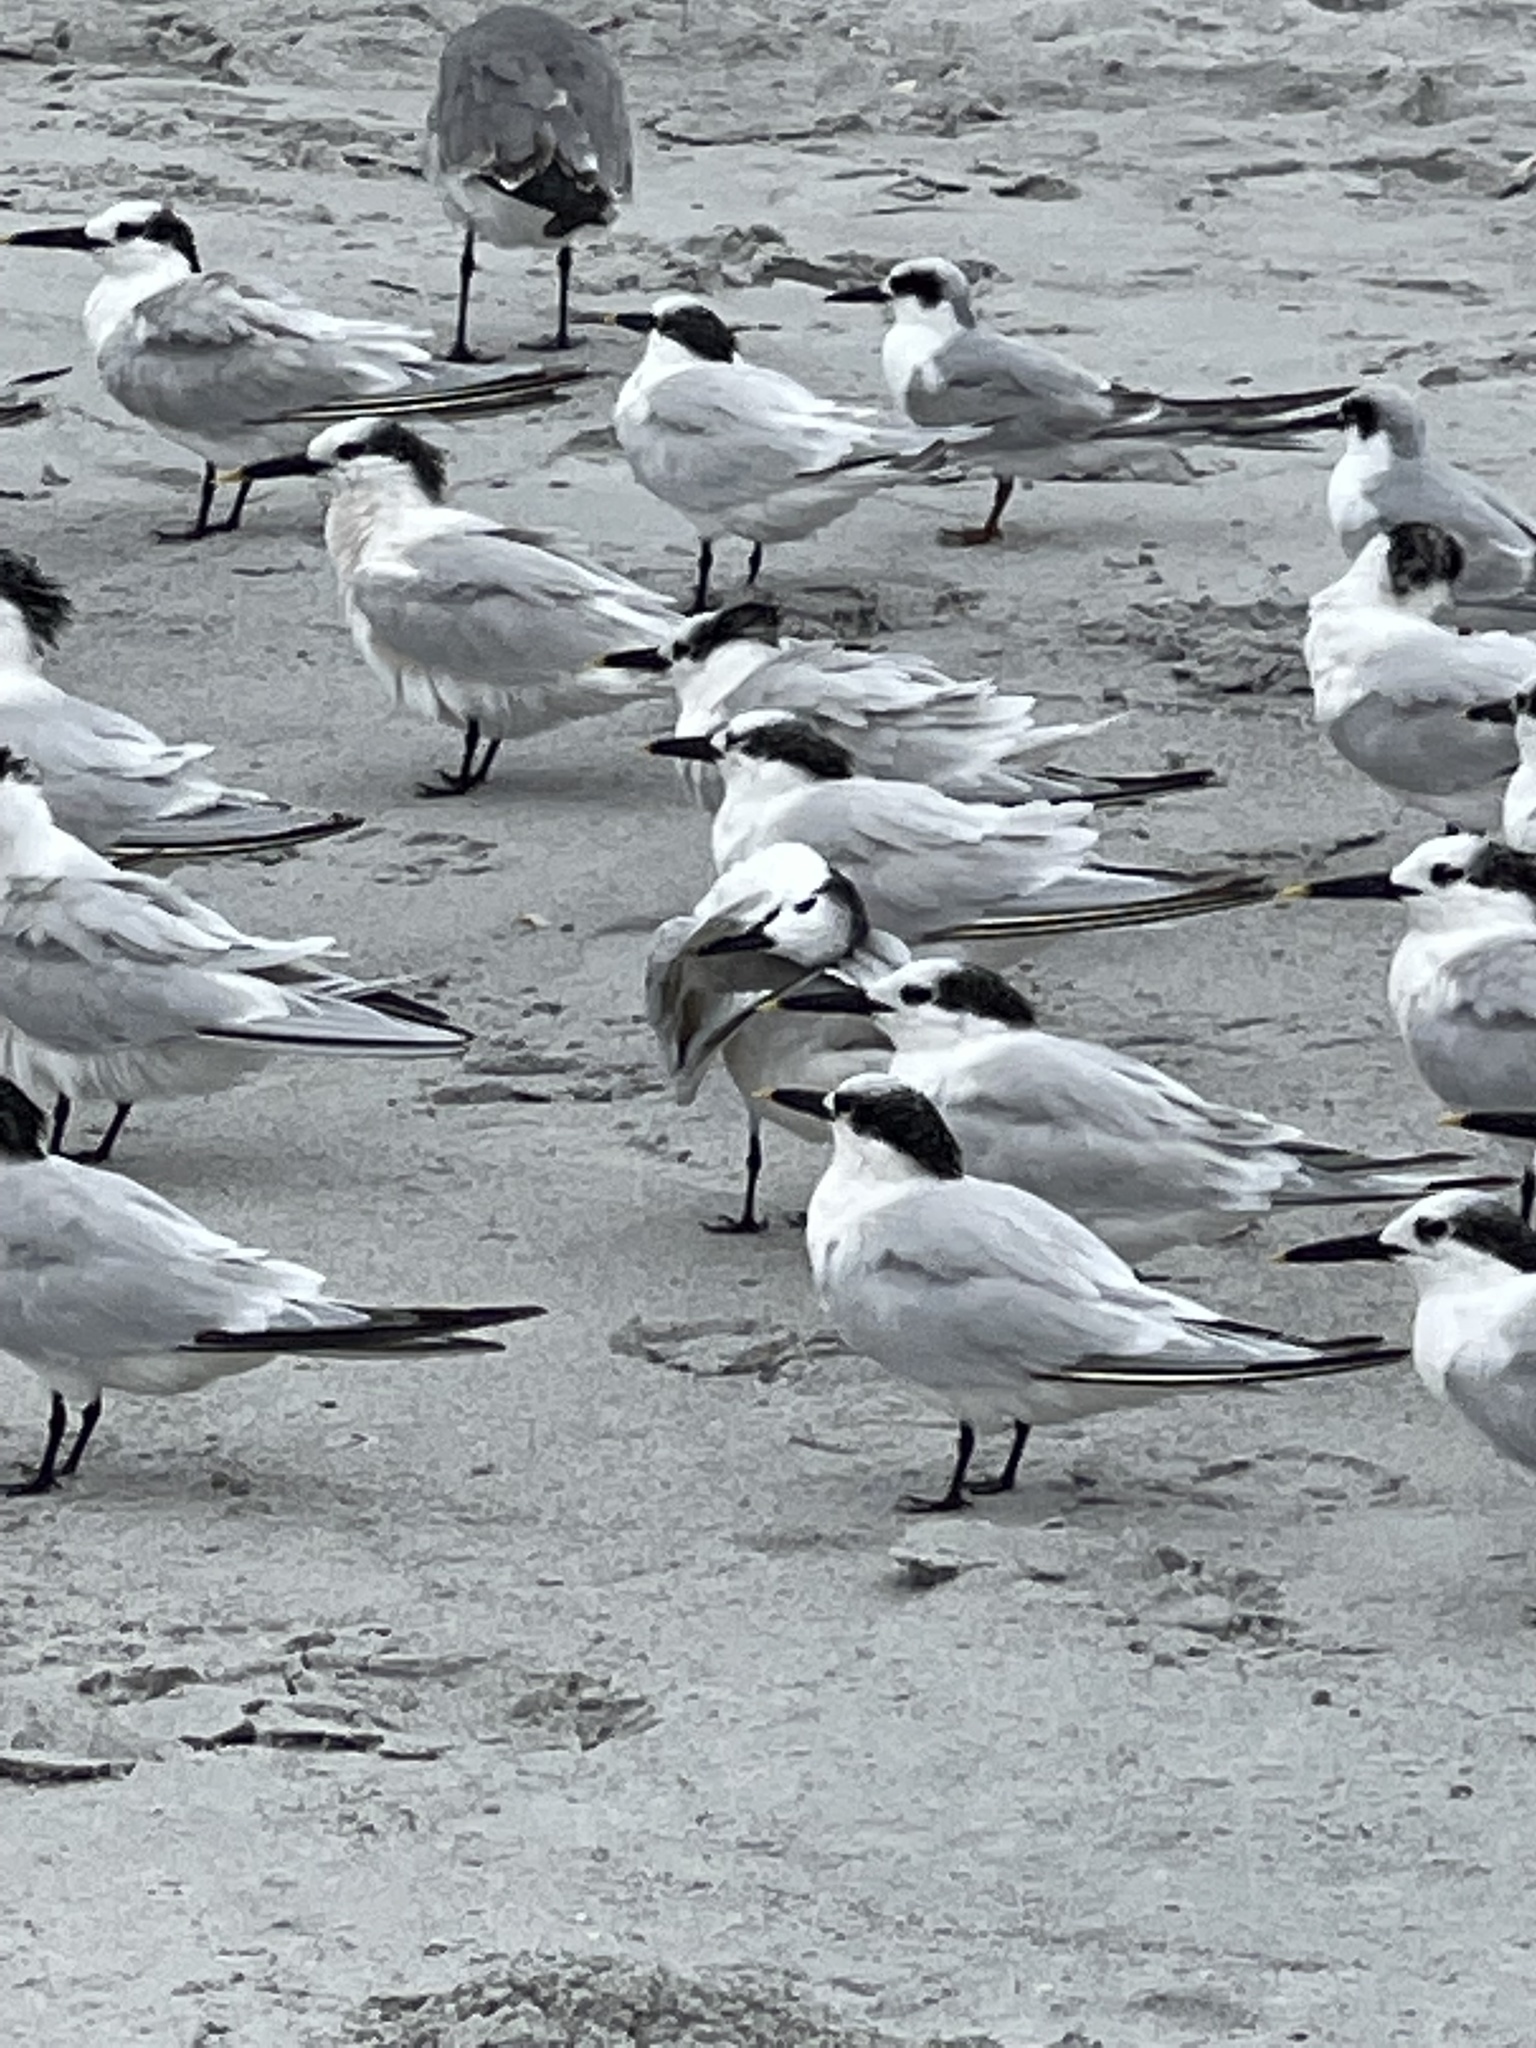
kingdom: Animalia
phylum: Chordata
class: Aves
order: Charadriiformes
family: Laridae
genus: Thalasseus
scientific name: Thalasseus sandvicensis
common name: Sandwich tern
